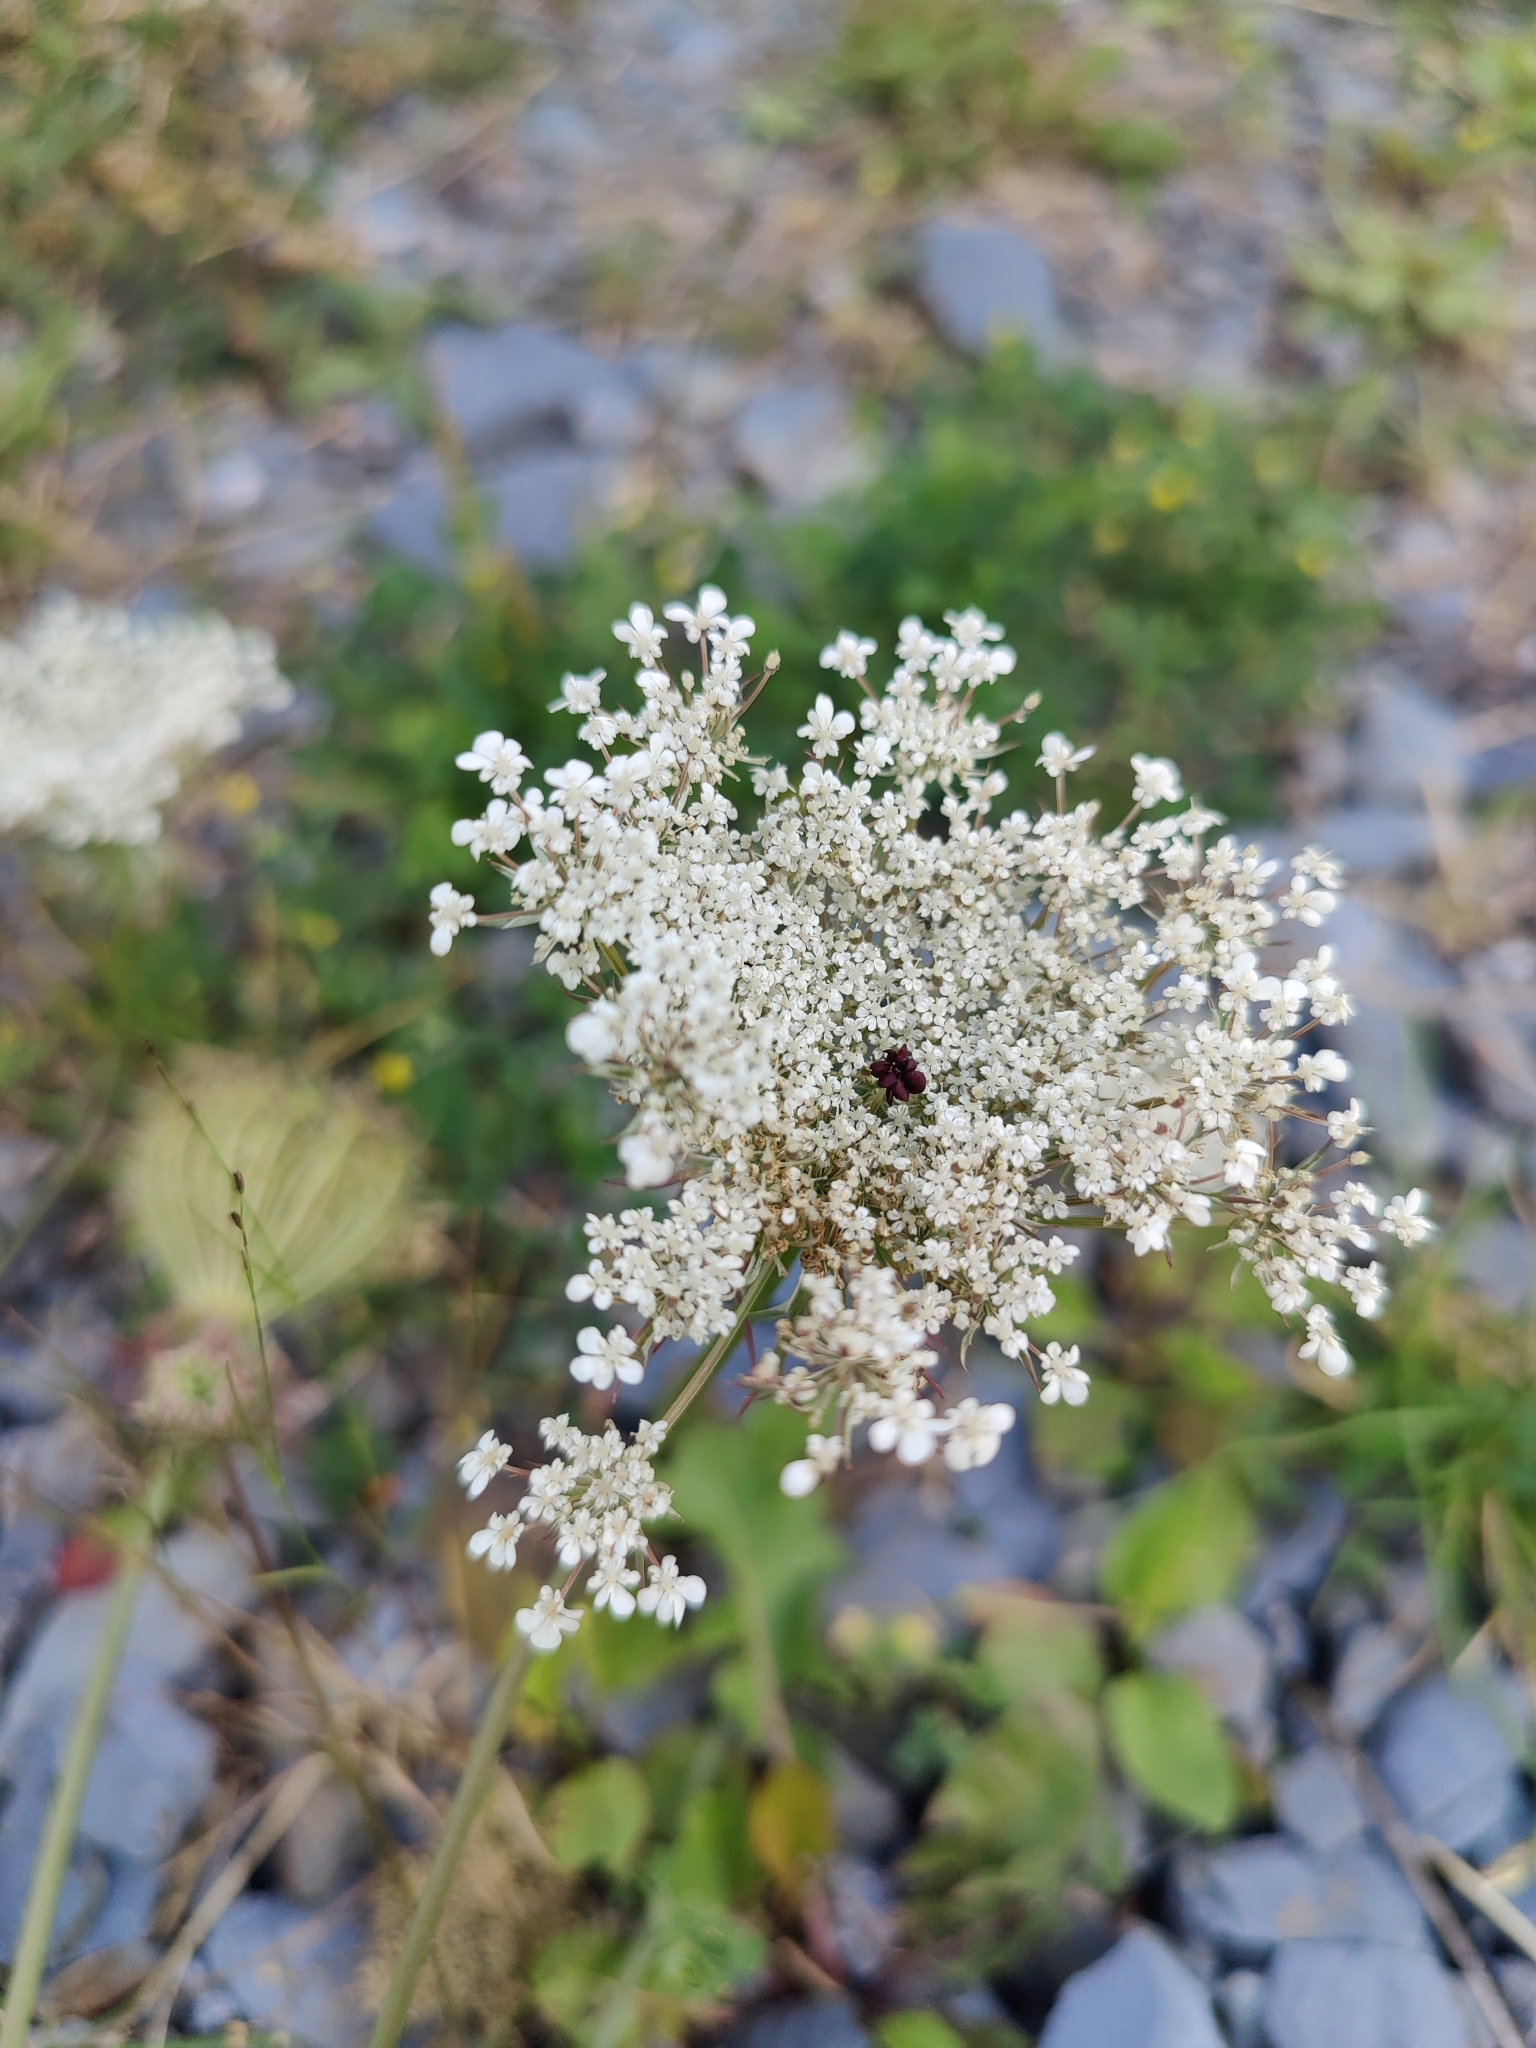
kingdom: Plantae
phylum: Tracheophyta
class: Magnoliopsida
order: Apiales
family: Apiaceae
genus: Daucus
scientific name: Daucus carota
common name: Wild carrot
